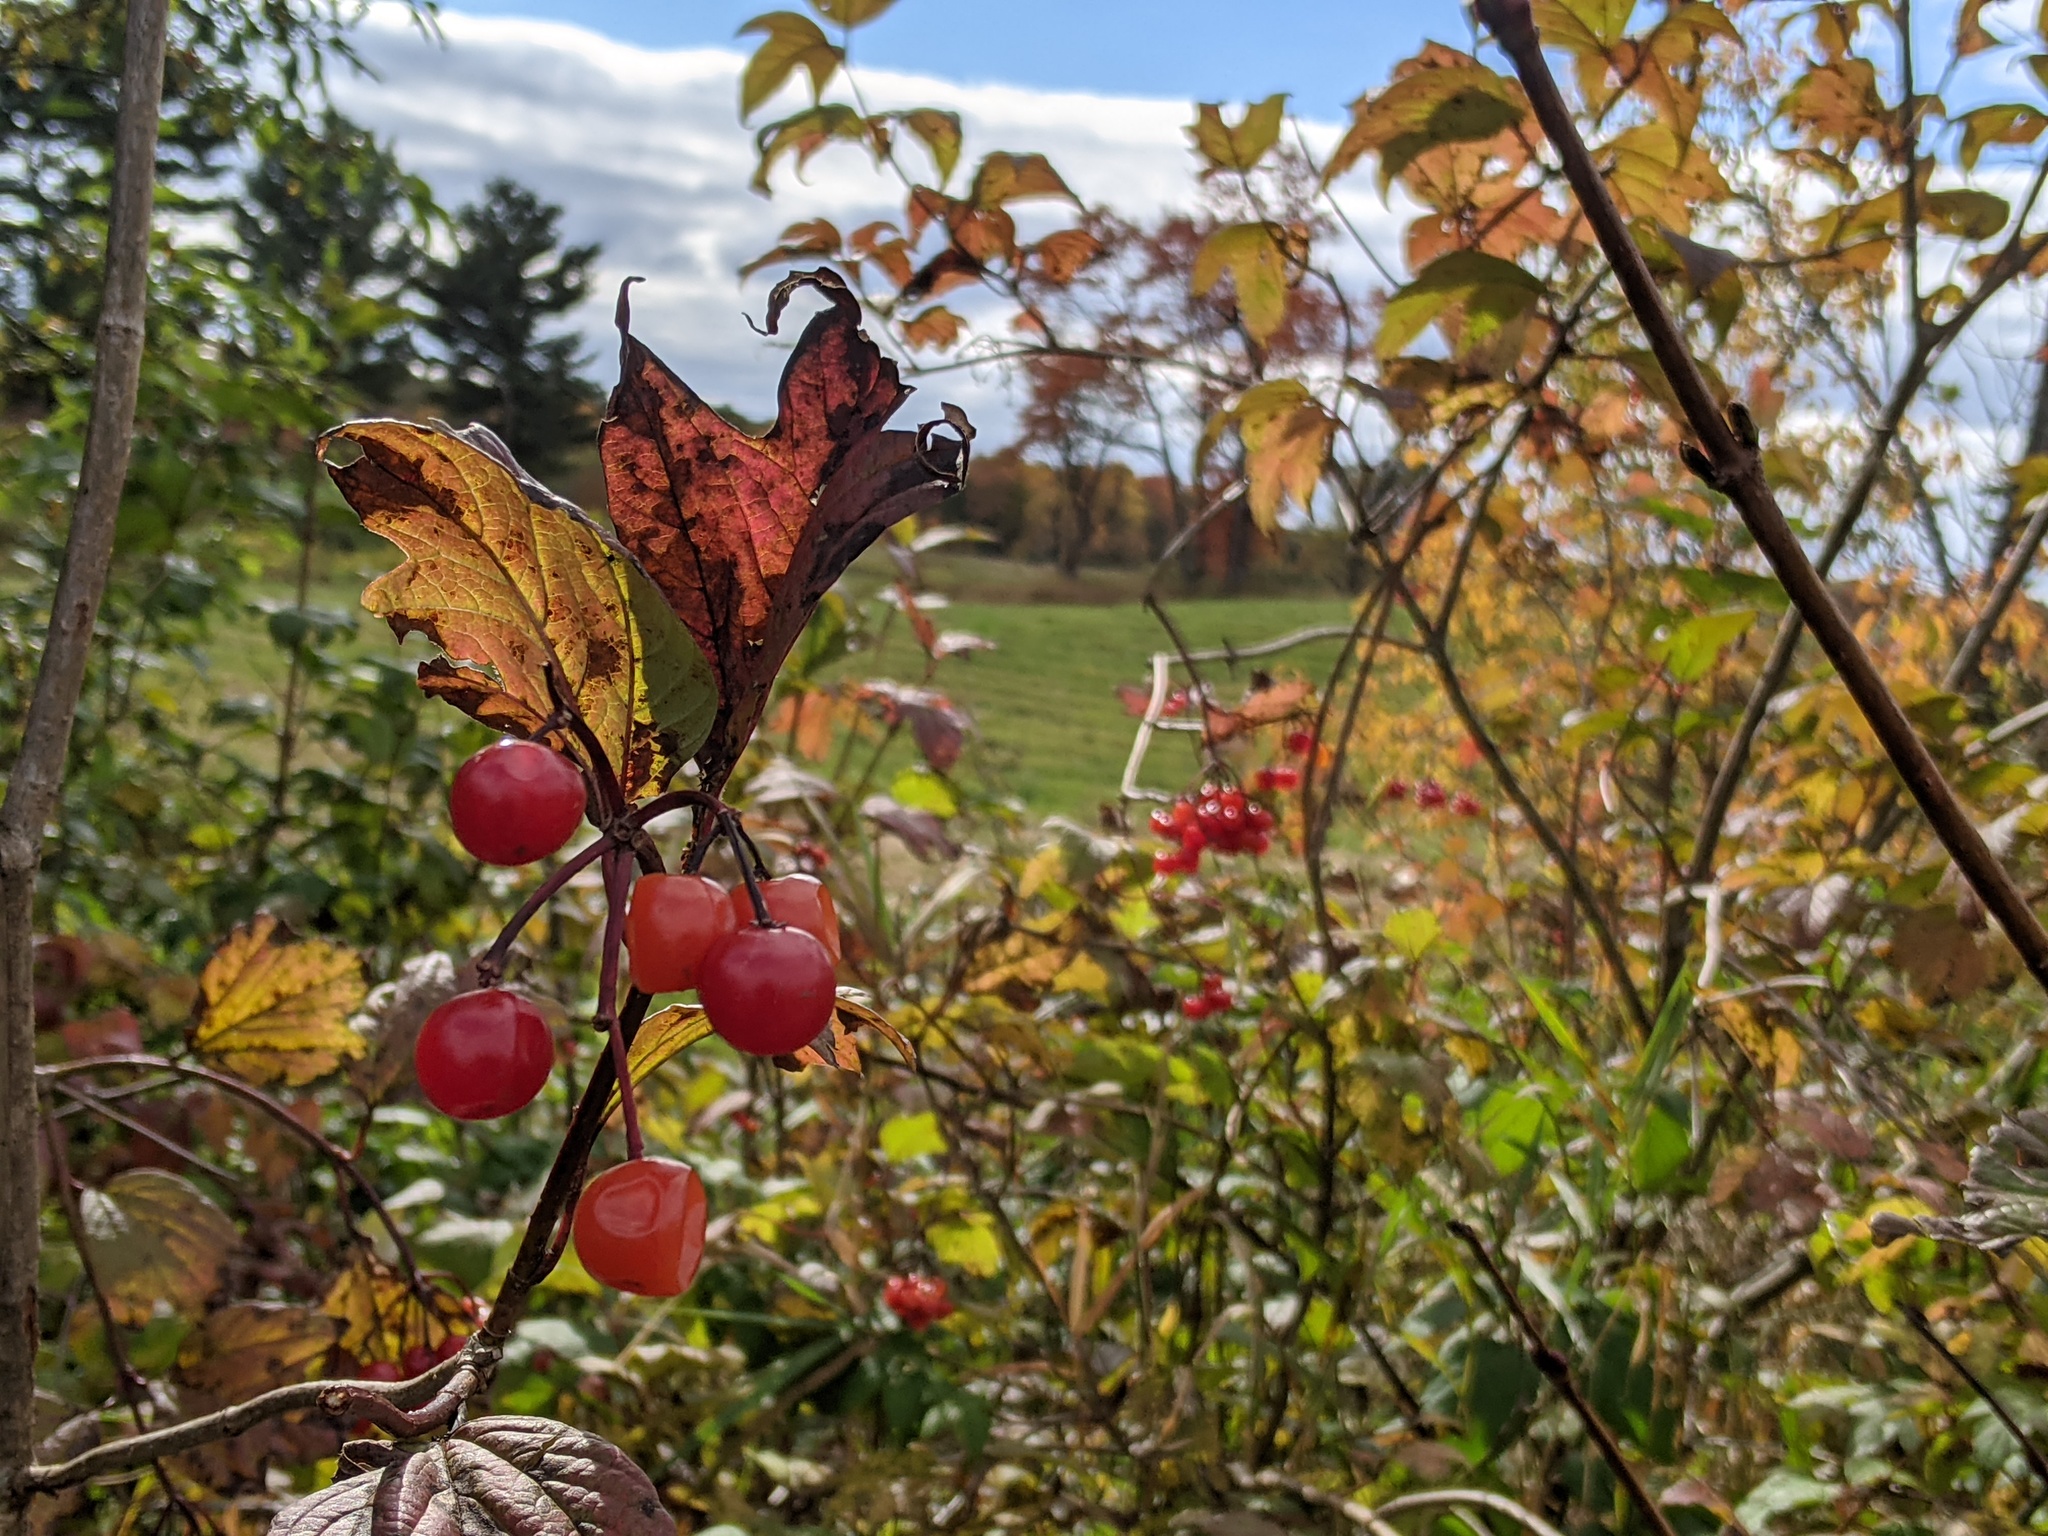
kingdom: Plantae
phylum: Tracheophyta
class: Magnoliopsida
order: Dipsacales
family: Viburnaceae
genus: Viburnum
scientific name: Viburnum opulus
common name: Guelder-rose
